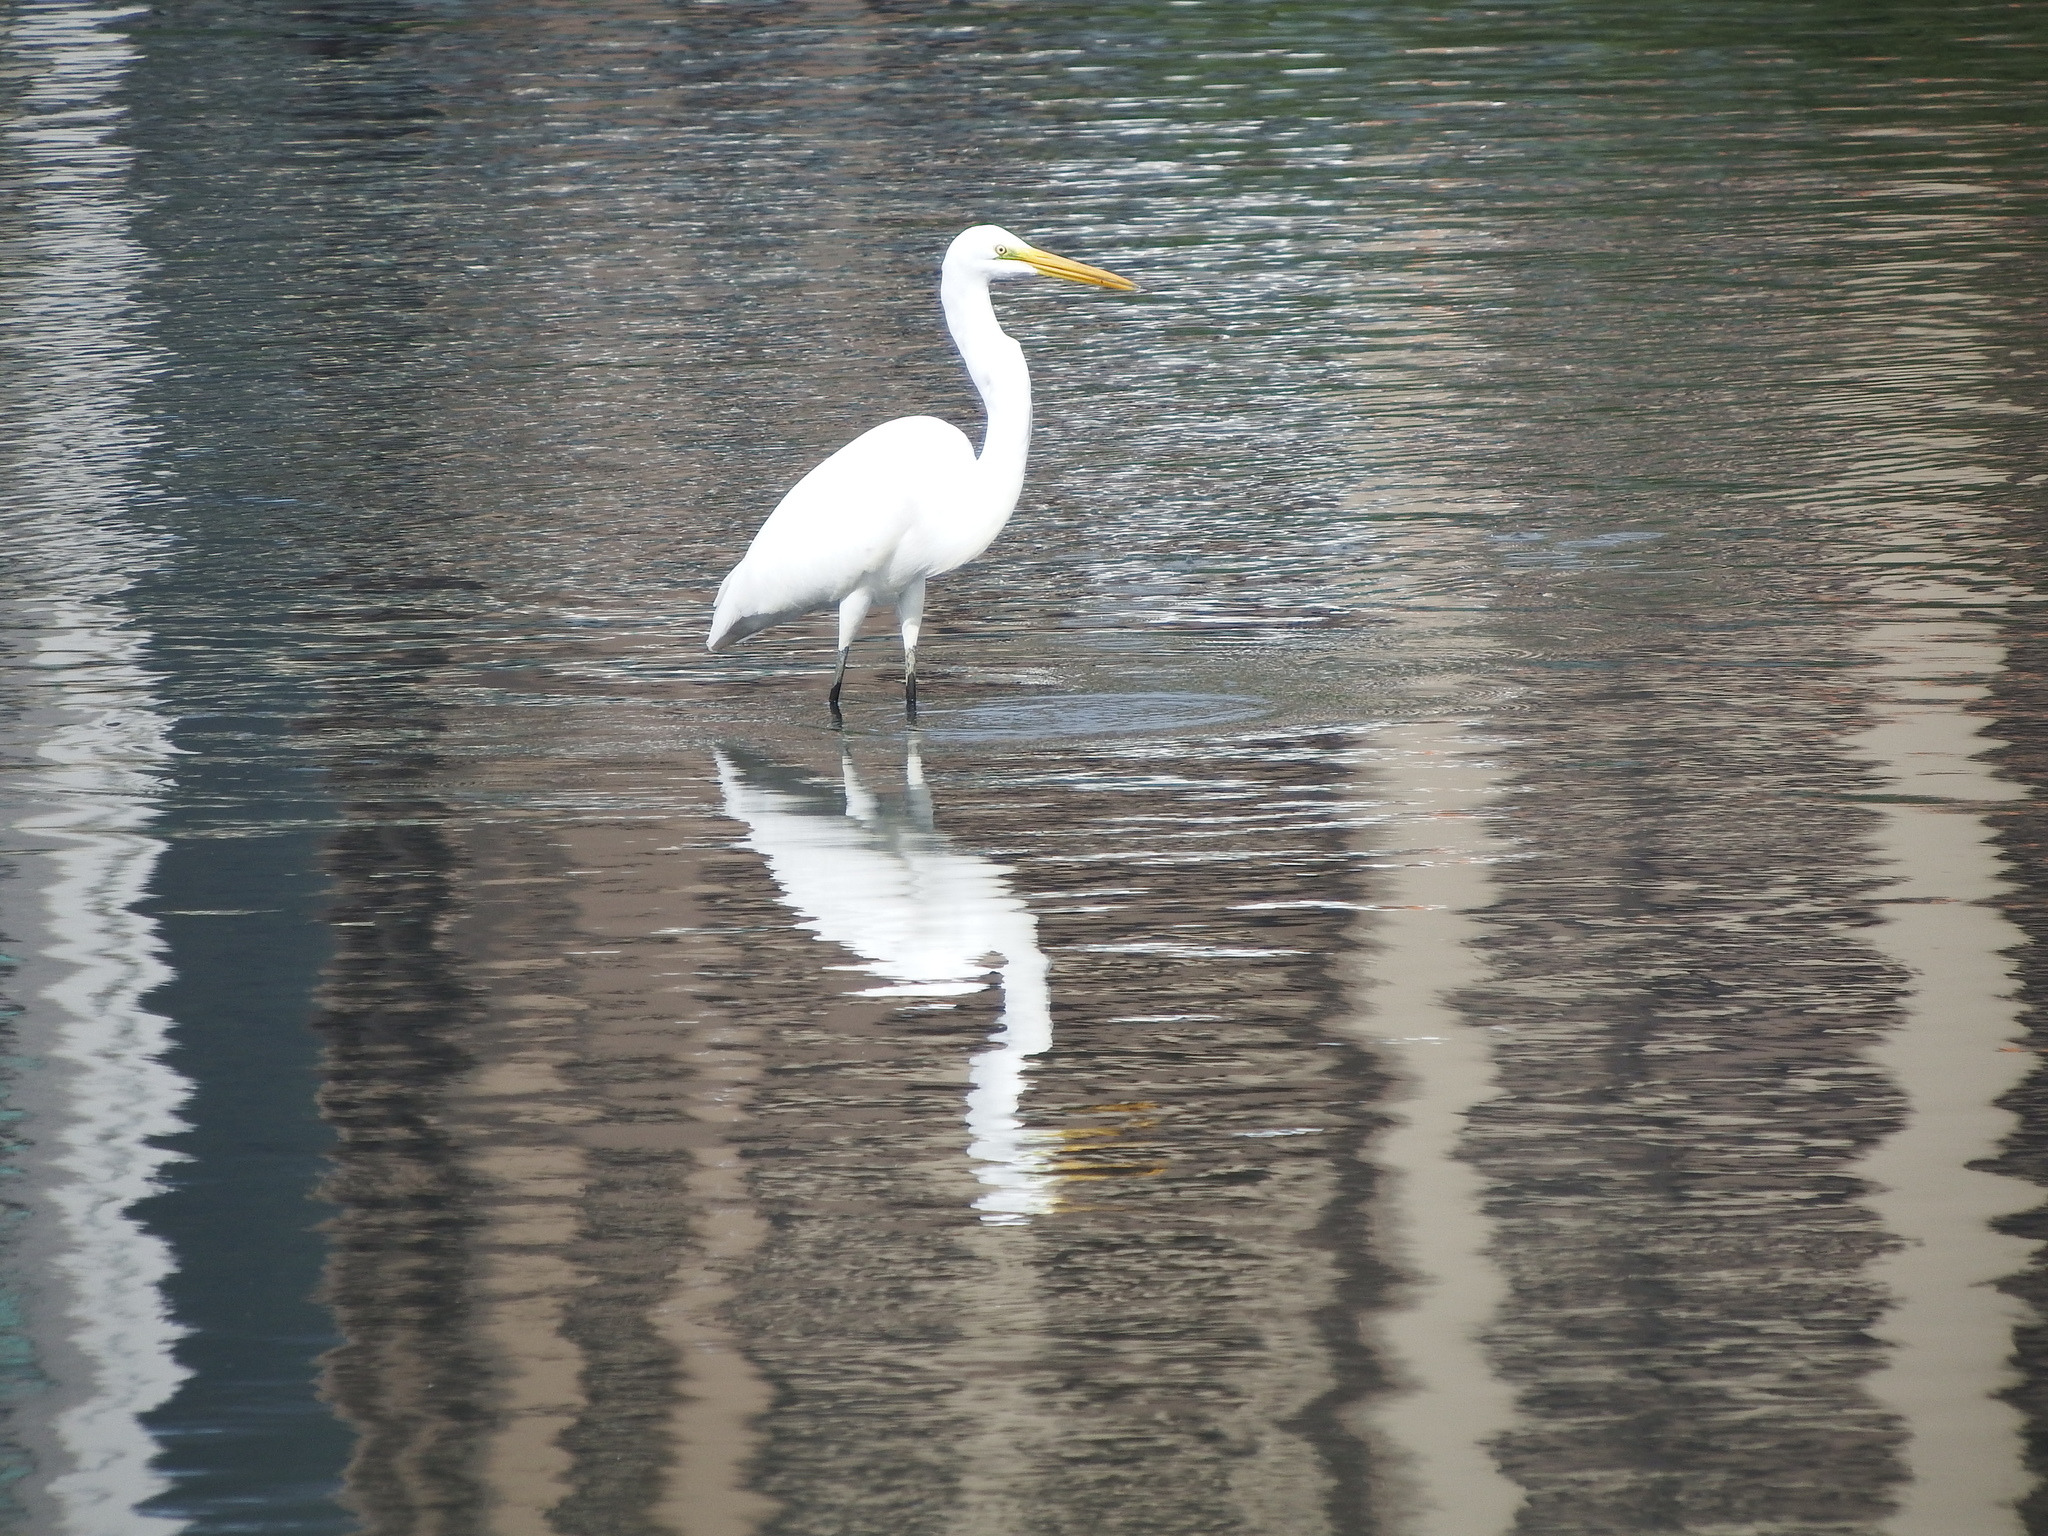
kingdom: Animalia
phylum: Chordata
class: Aves
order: Pelecaniformes
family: Ardeidae
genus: Ardea
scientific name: Ardea alba
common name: Great egret
